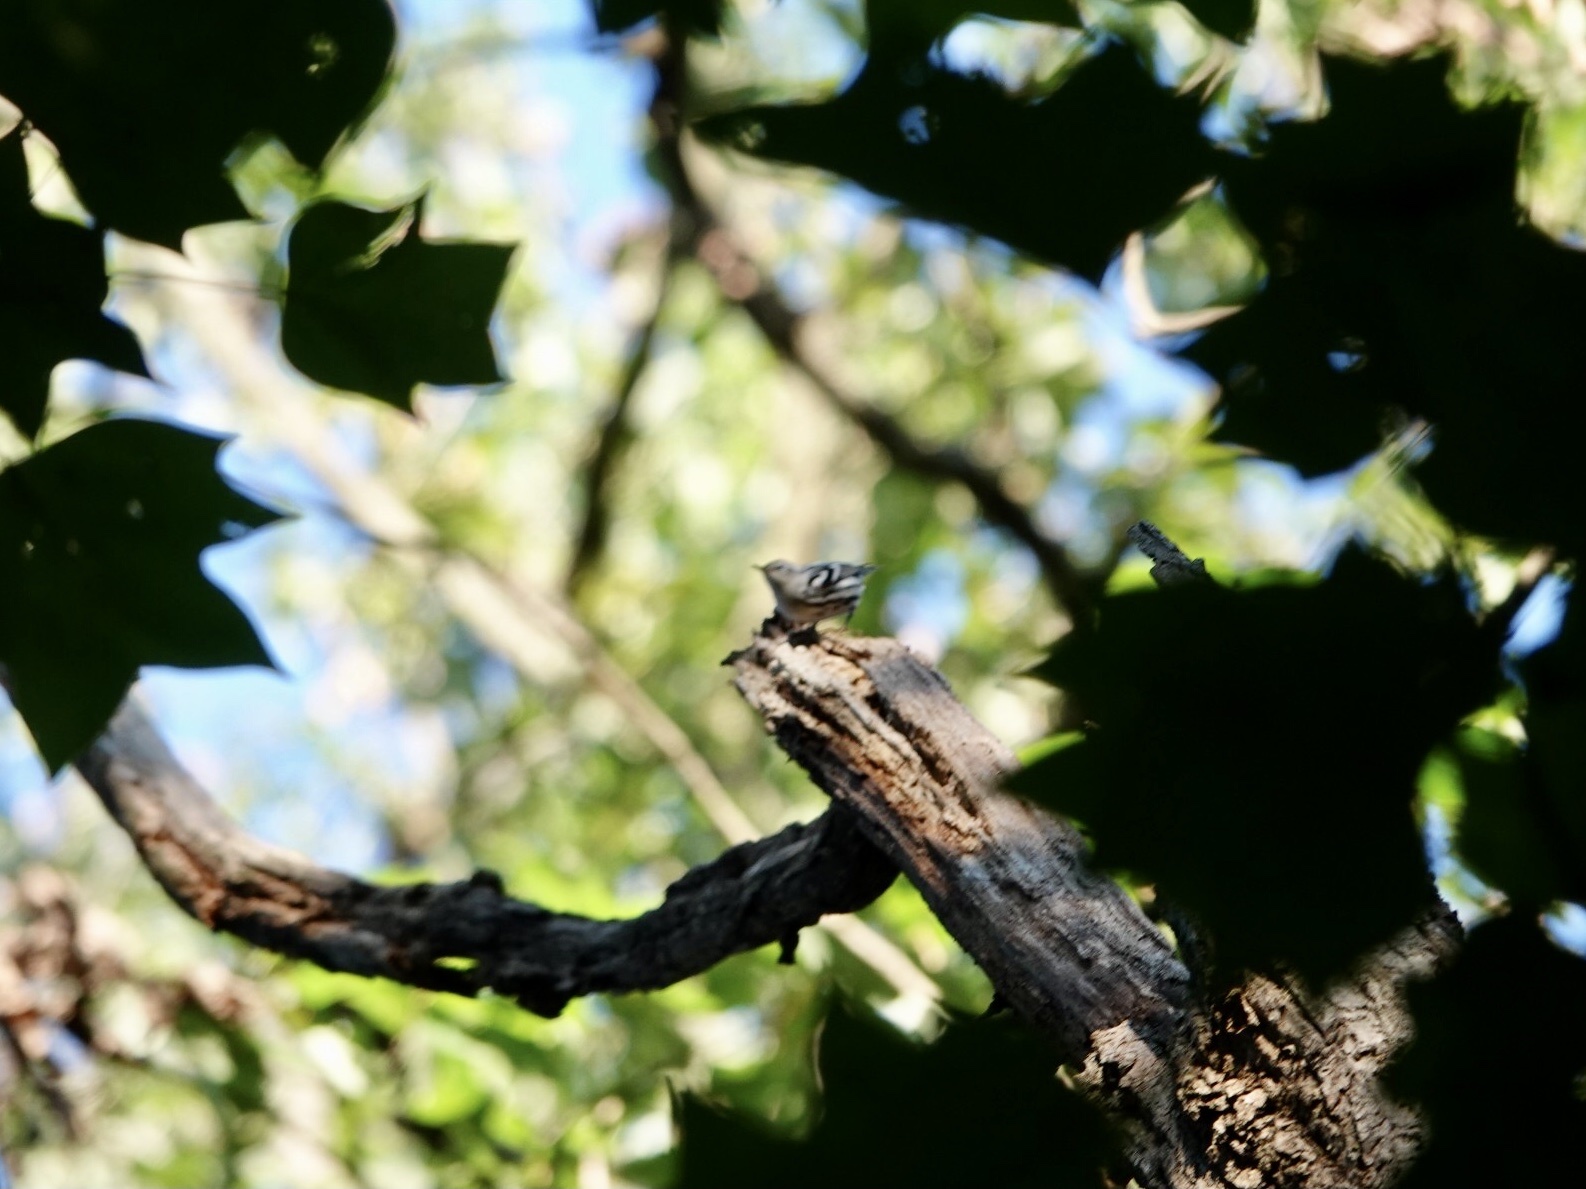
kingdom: Animalia
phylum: Chordata
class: Aves
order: Passeriformes
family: Parulidae
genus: Mniotilta
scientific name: Mniotilta varia
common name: Black-and-white warbler
